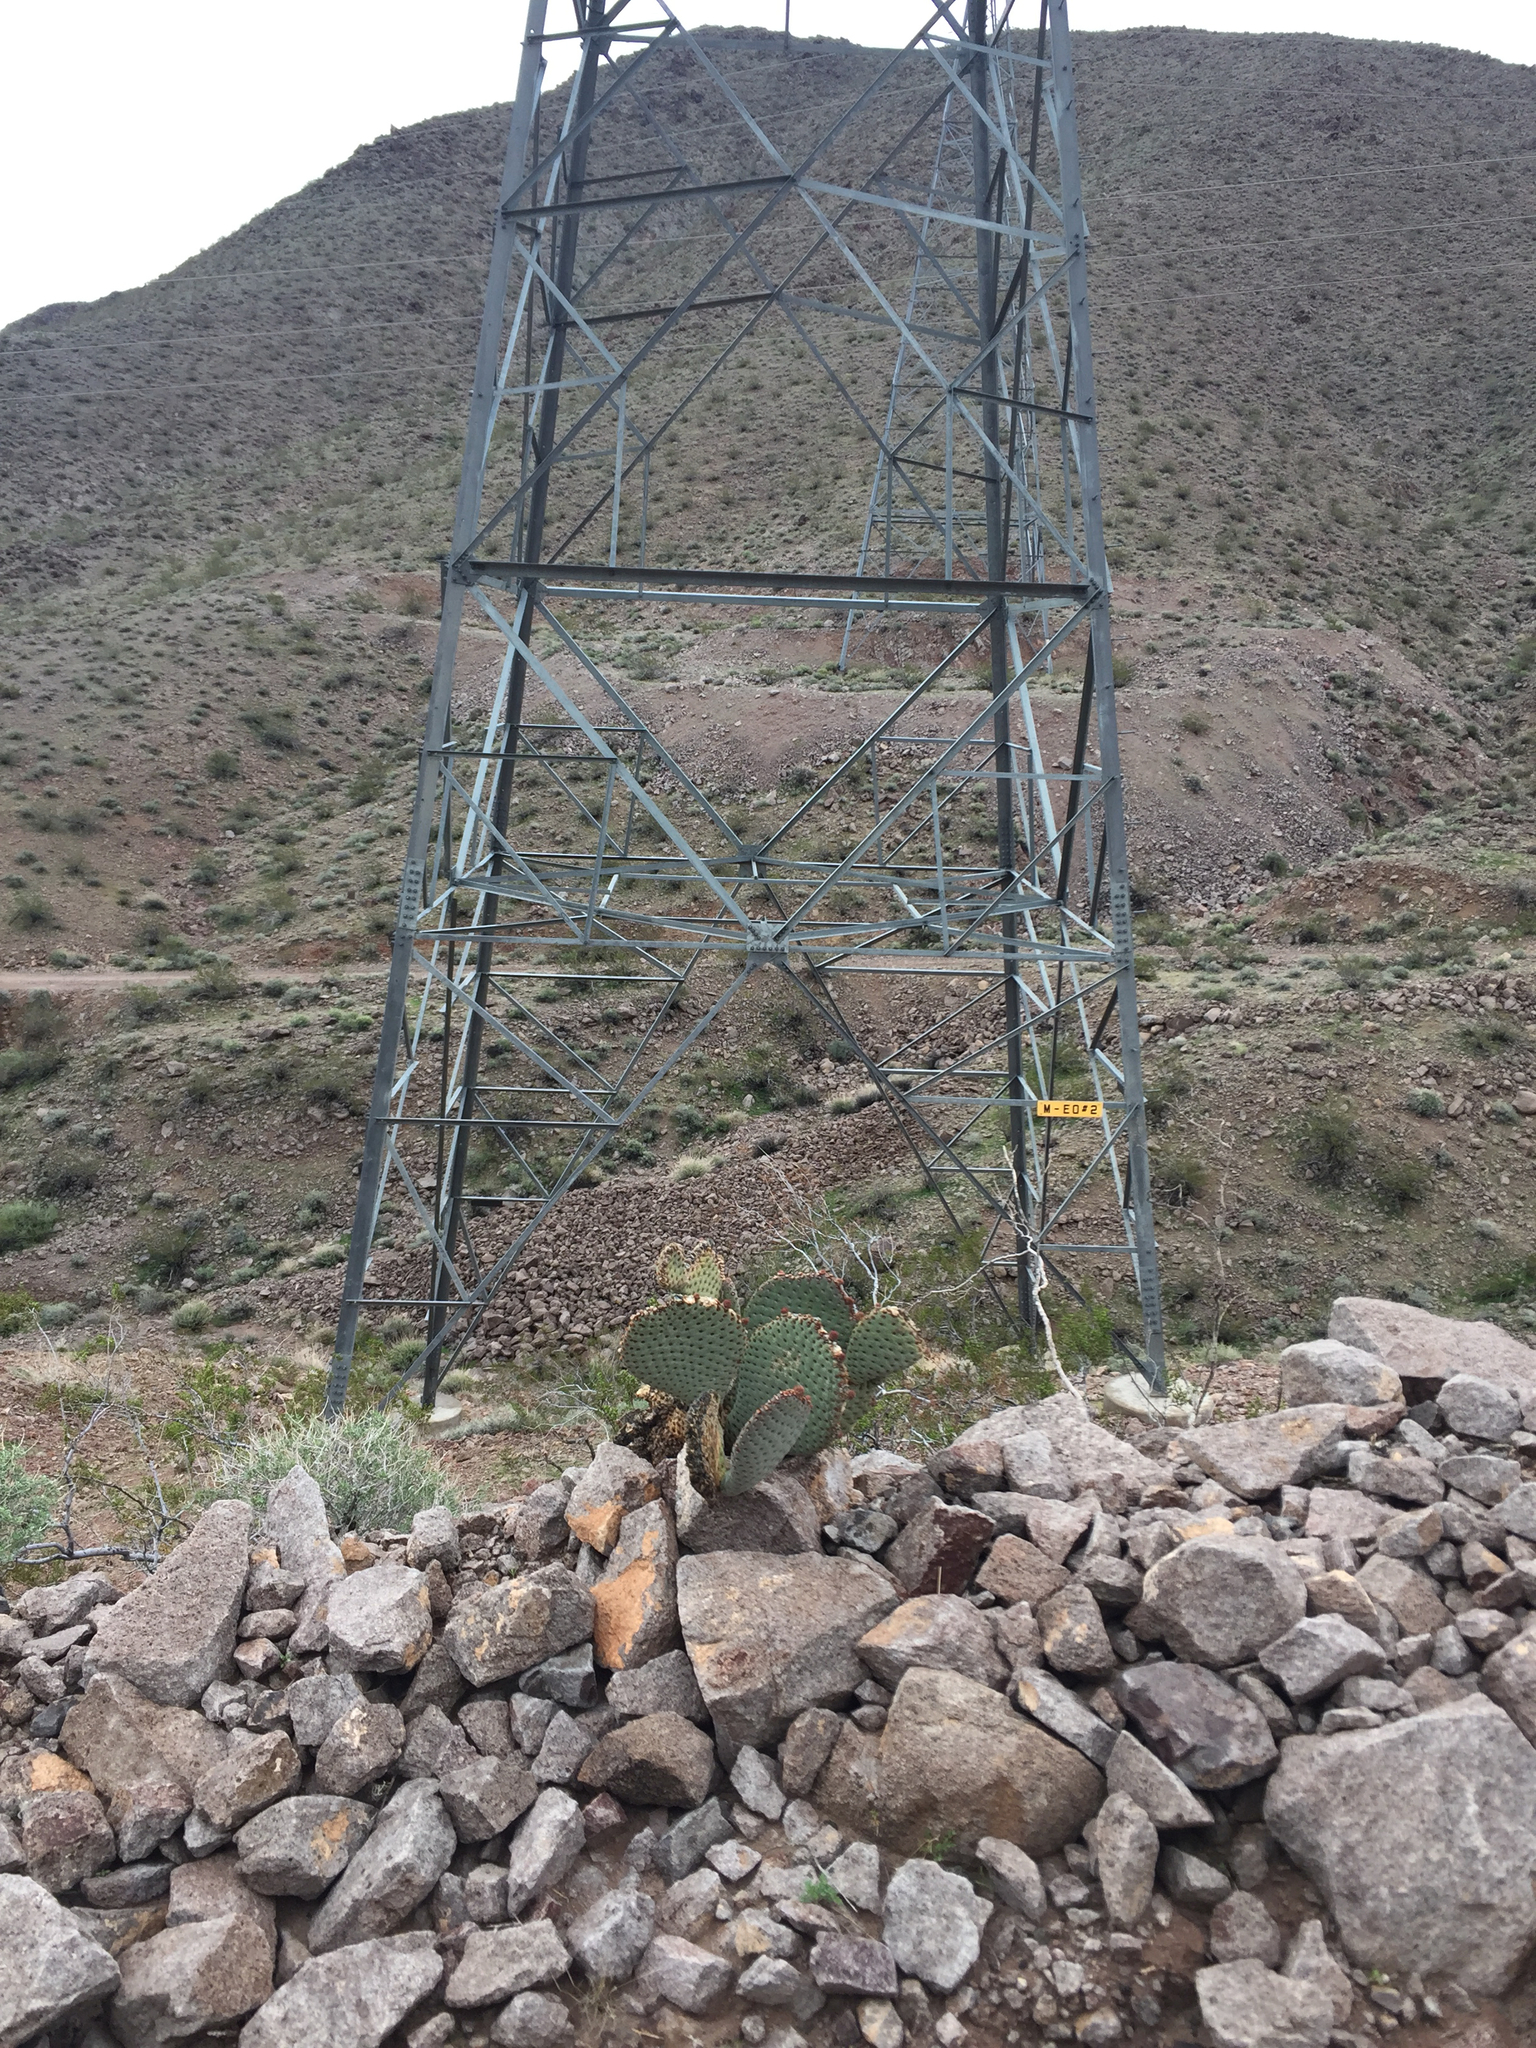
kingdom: Plantae
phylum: Tracheophyta
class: Magnoliopsida
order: Caryophyllales
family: Cactaceae
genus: Opuntia
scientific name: Opuntia basilaris
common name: Beavertail prickly-pear
